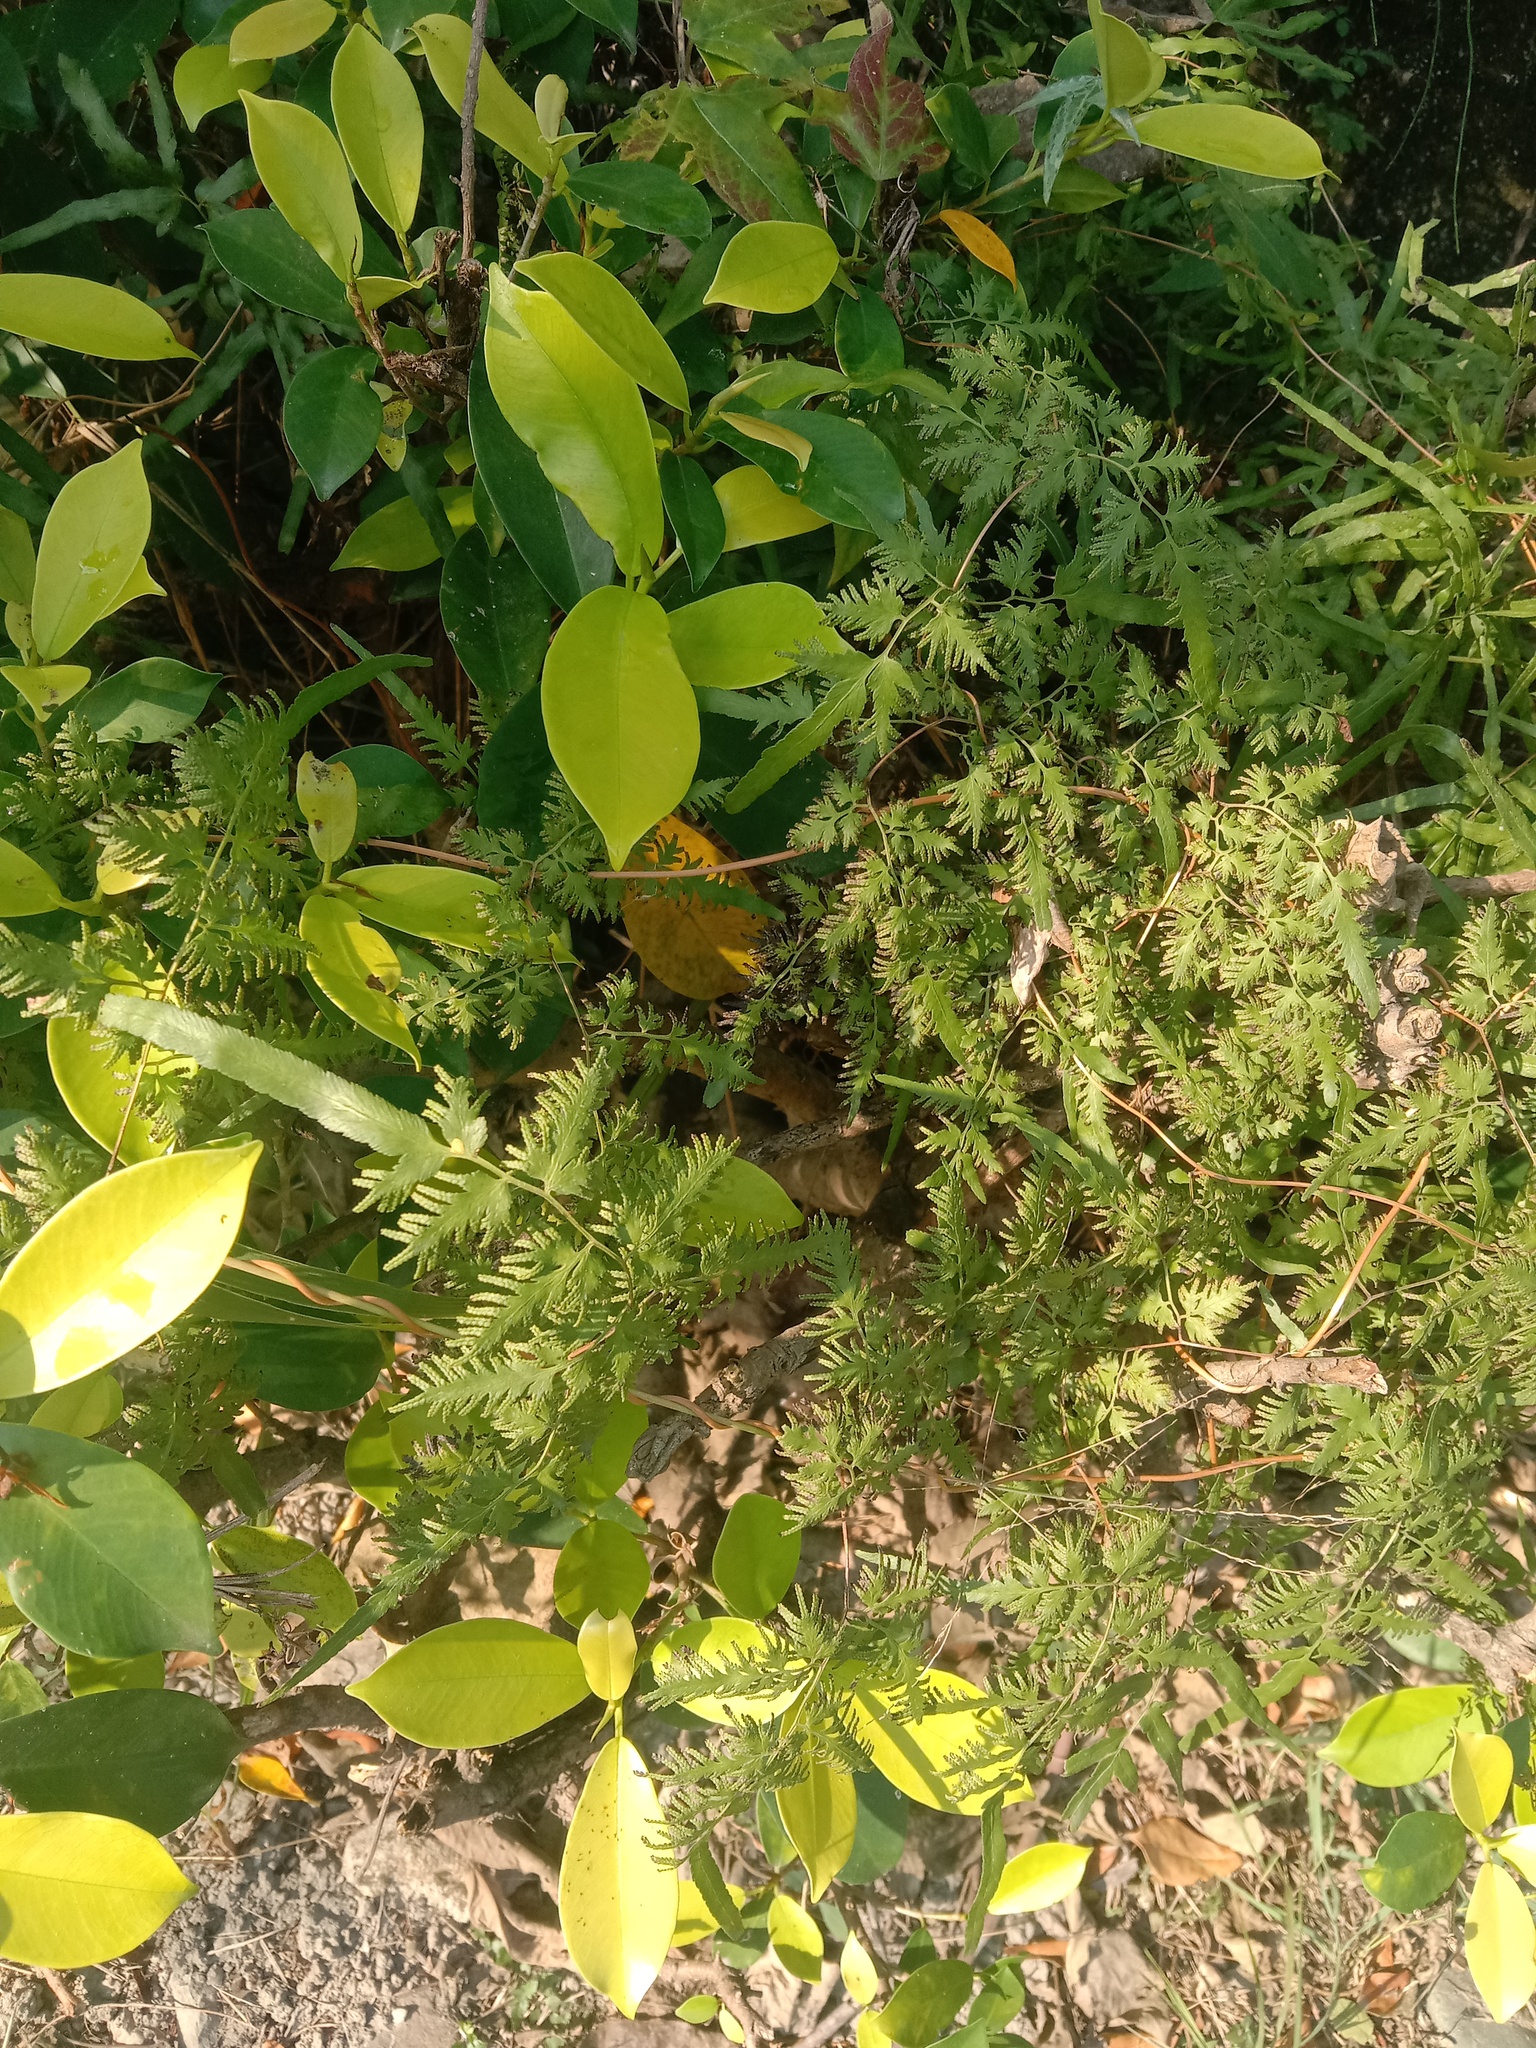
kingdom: Plantae
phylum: Tracheophyta
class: Polypodiopsida
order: Schizaeales
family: Lygodiaceae
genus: Lygodium
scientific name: Lygodium japonicum
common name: Japanese climbing fern
